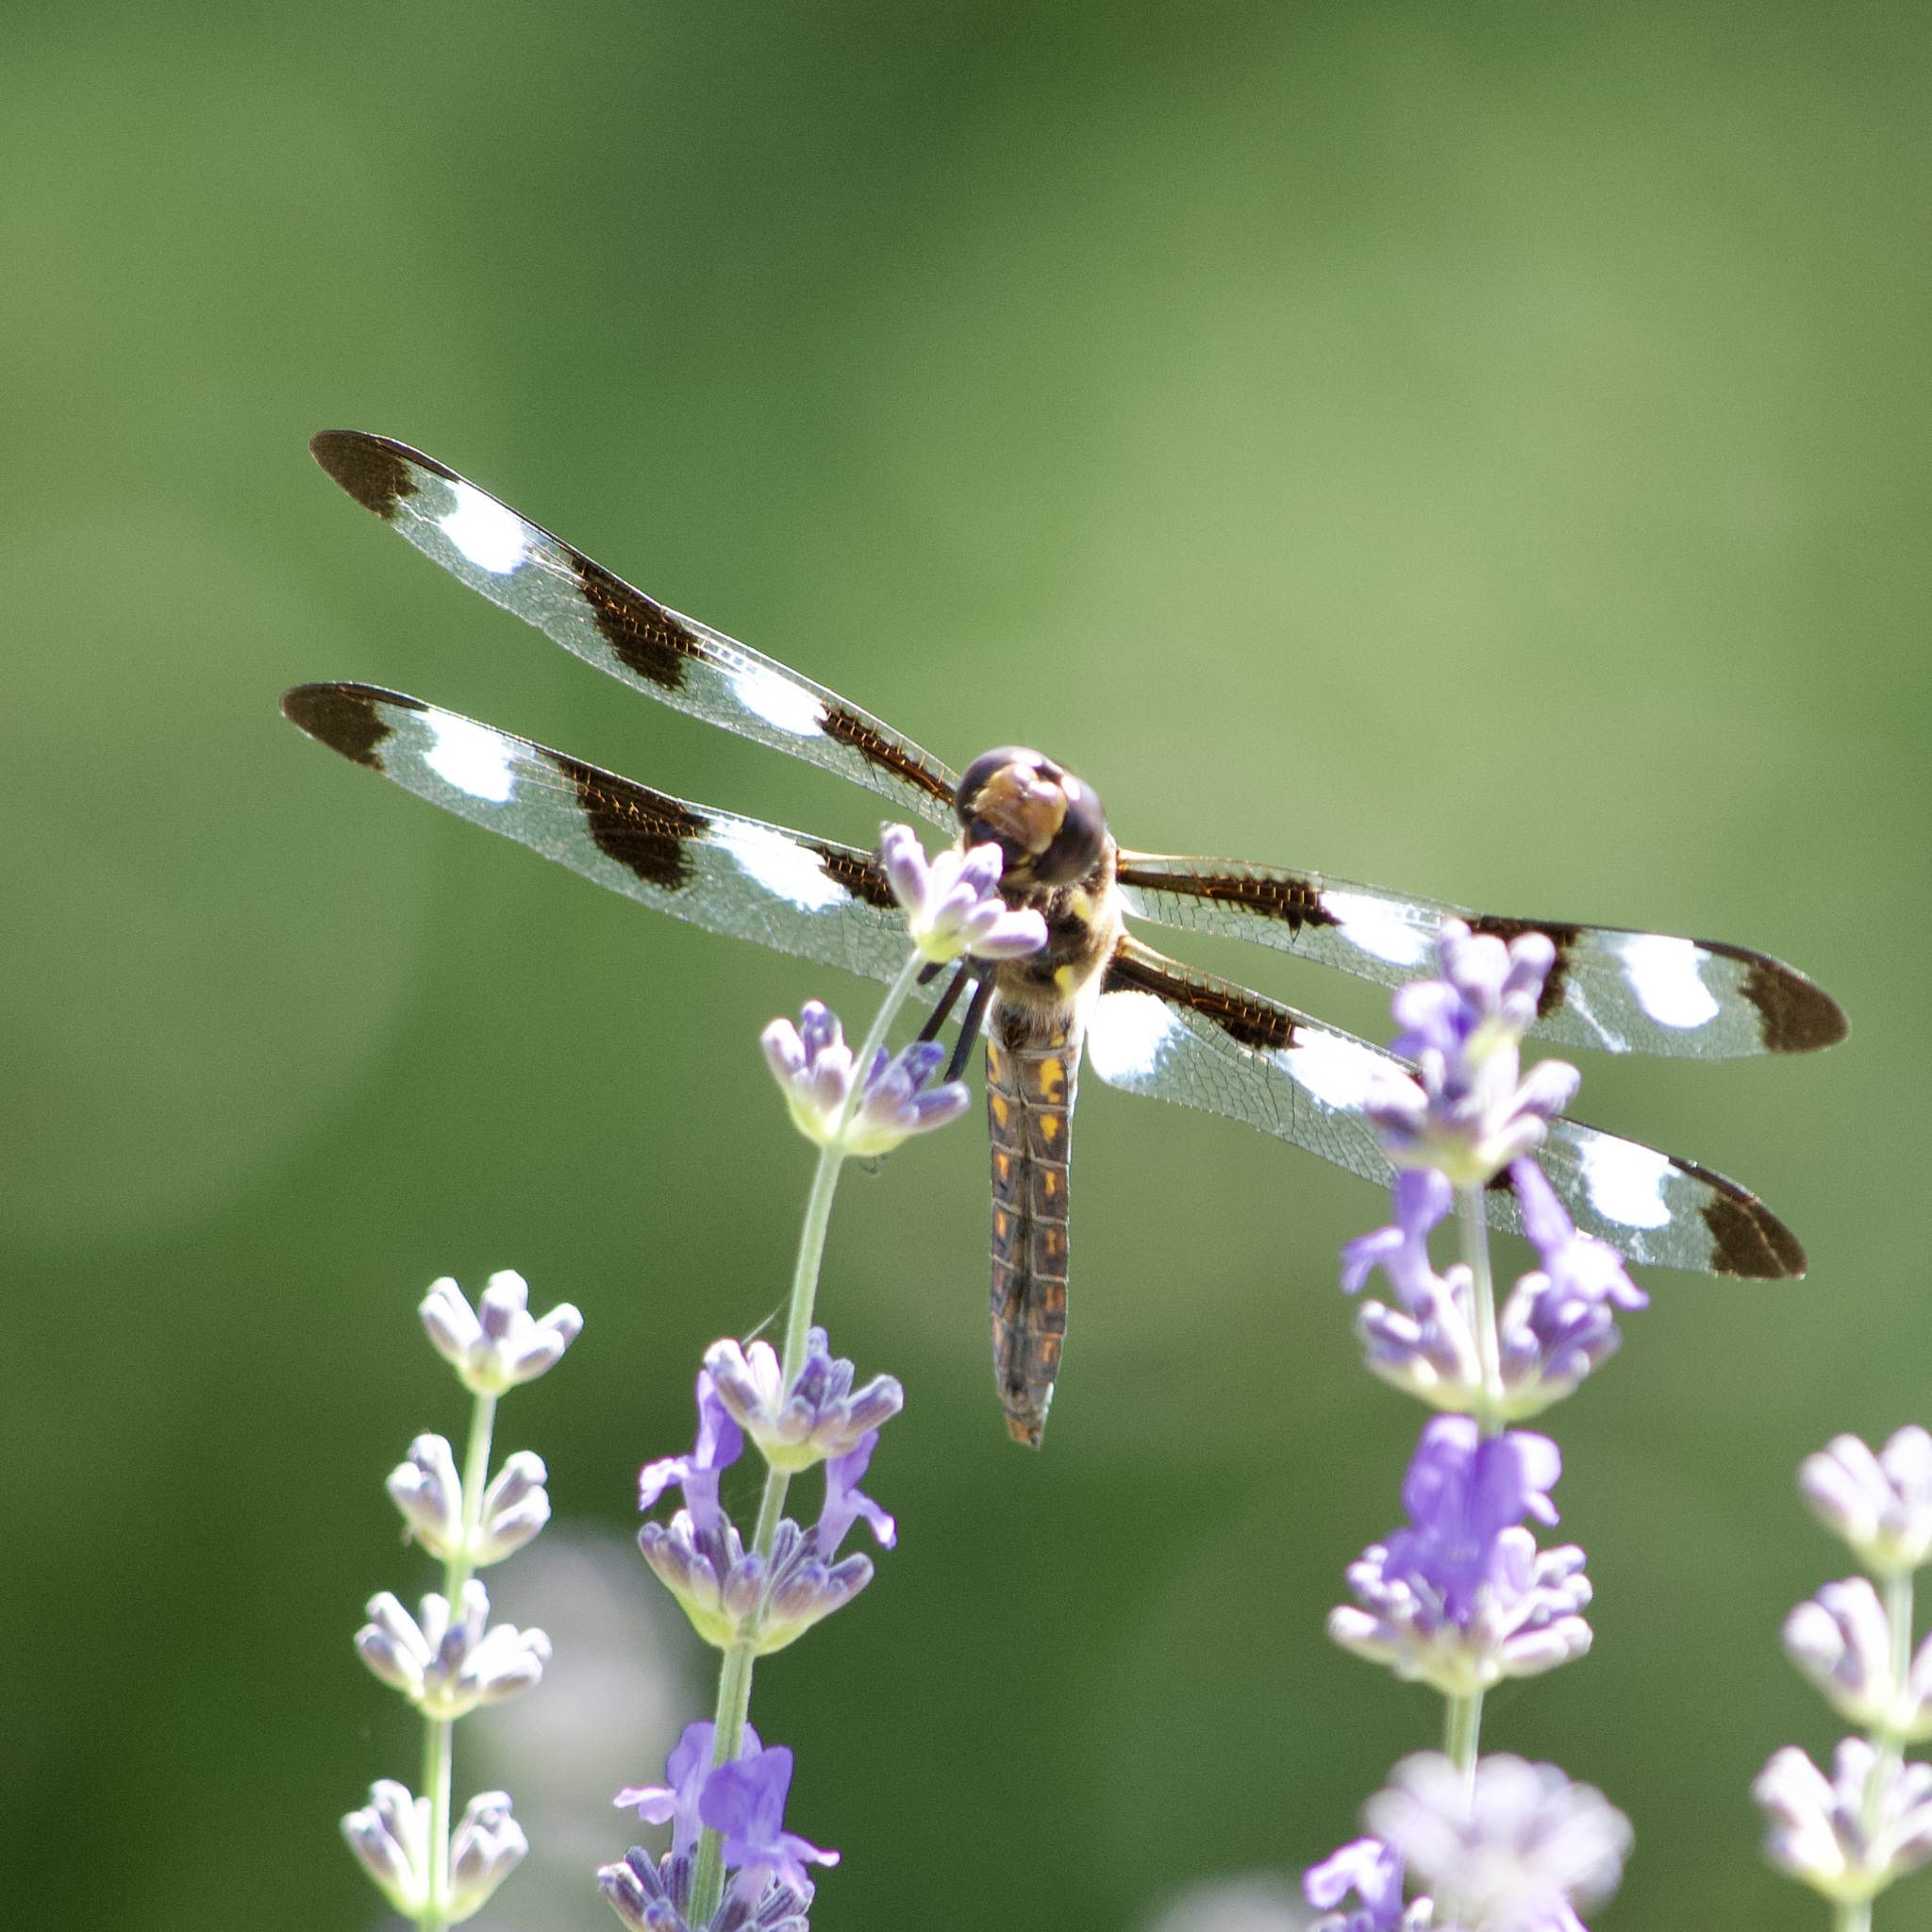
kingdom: Animalia
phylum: Arthropoda
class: Insecta
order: Odonata
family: Libellulidae
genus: Libellula
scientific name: Libellula pulchella
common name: Twelve-spotted skimmer
